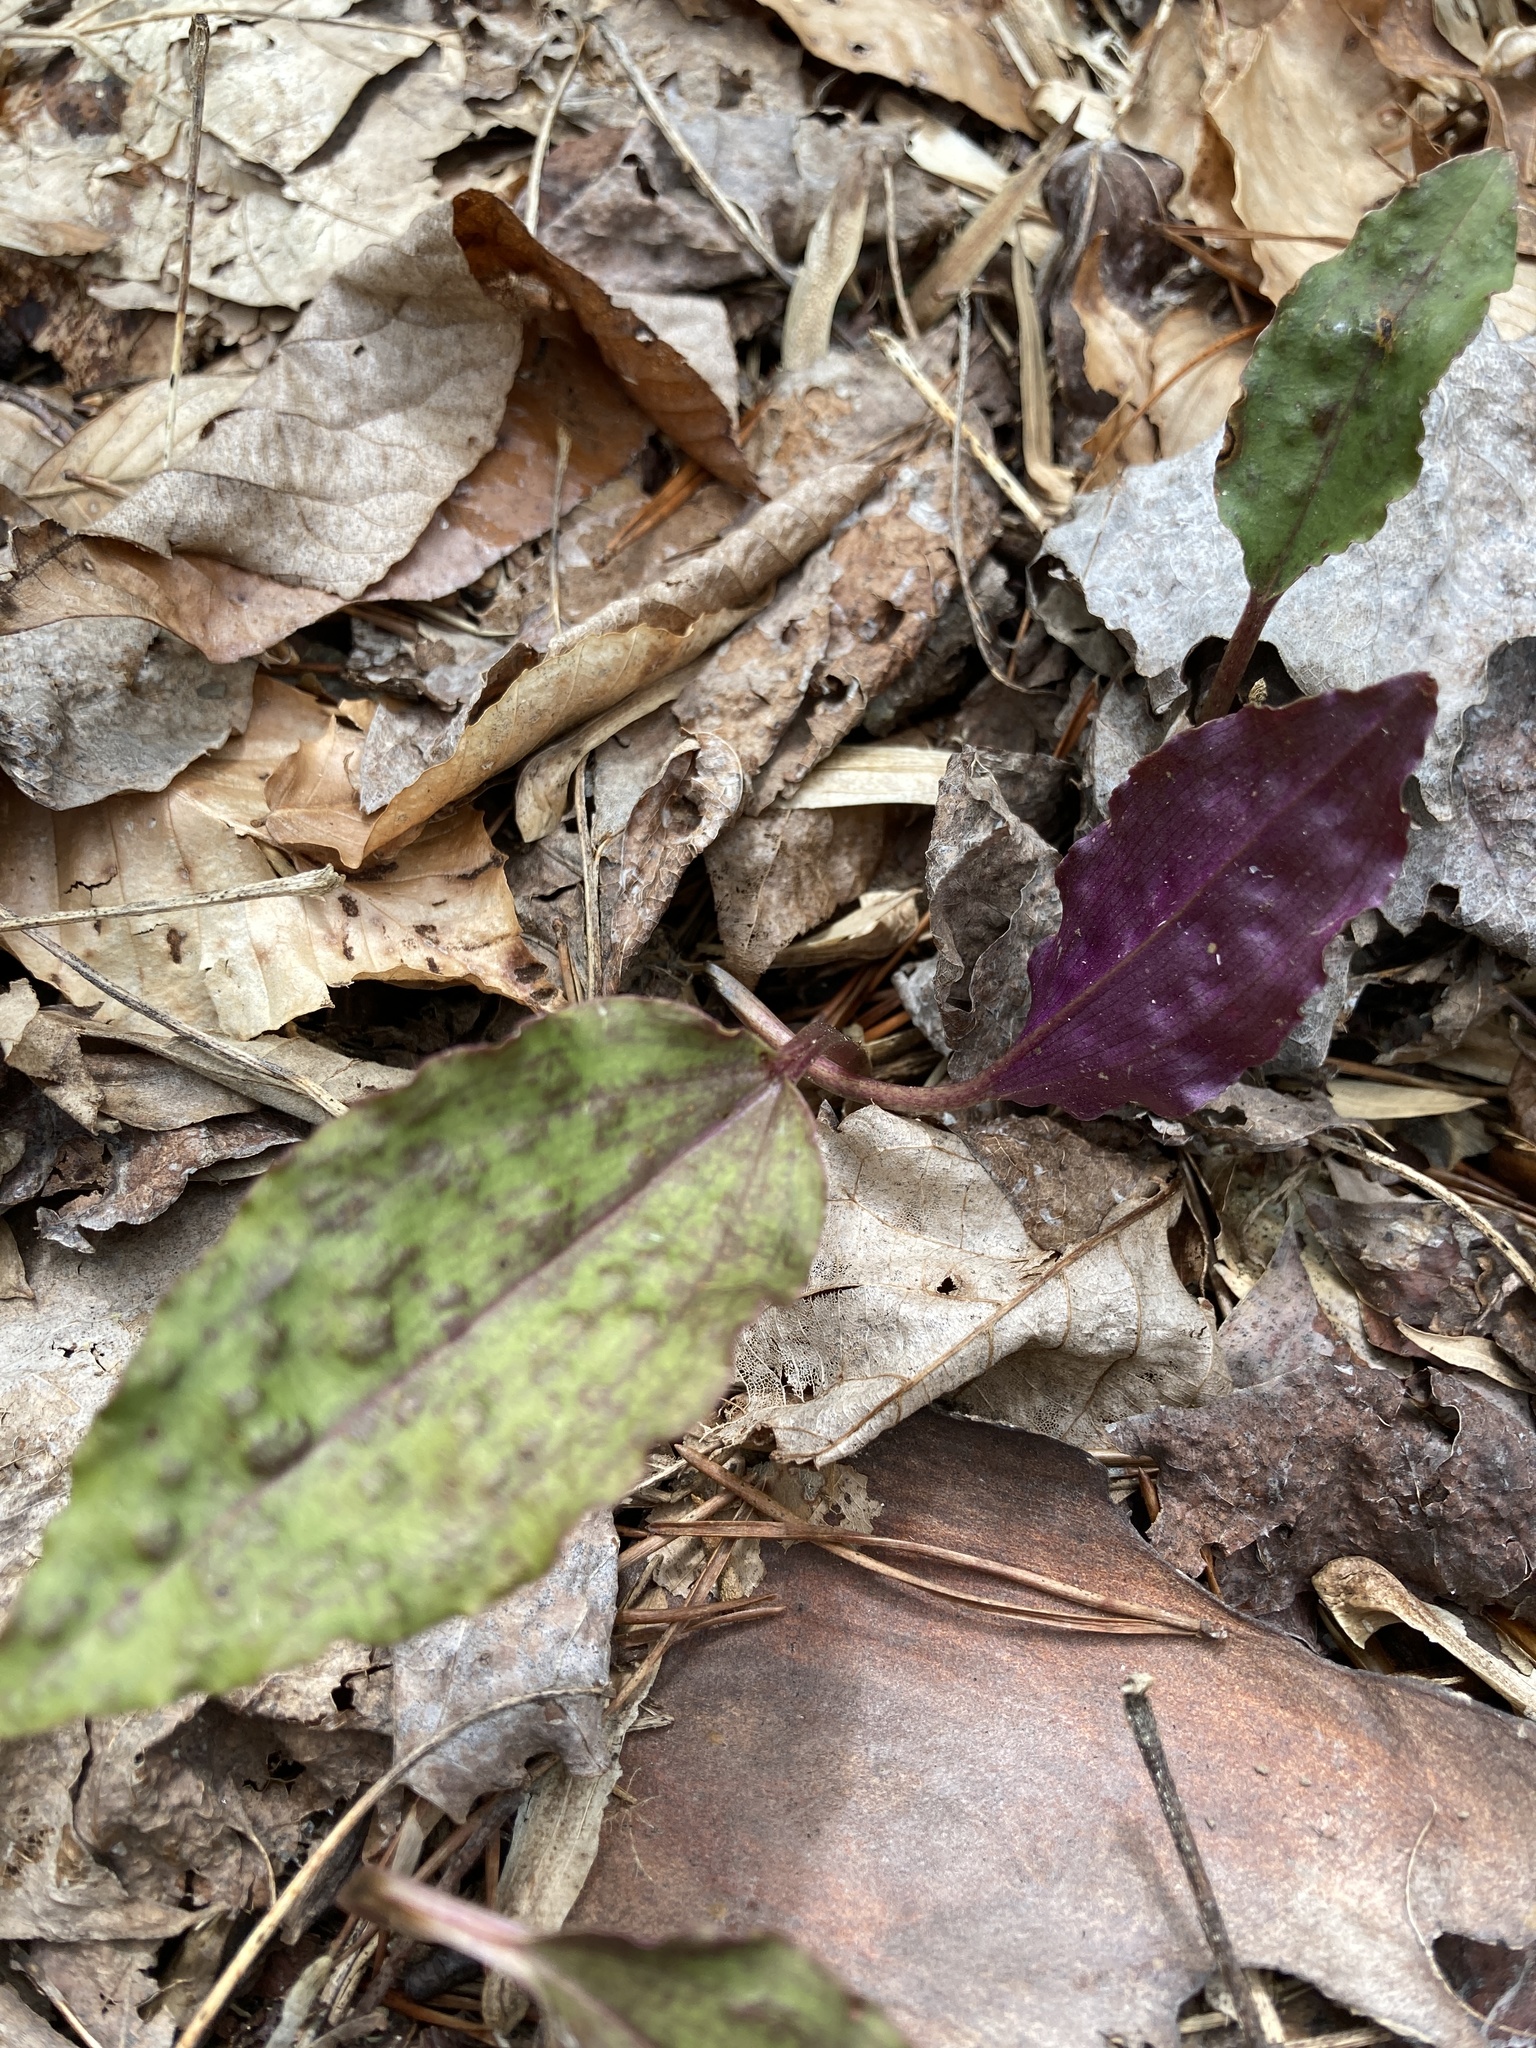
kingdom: Plantae
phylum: Tracheophyta
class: Liliopsida
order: Asparagales
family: Orchidaceae
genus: Tipularia
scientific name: Tipularia discolor
